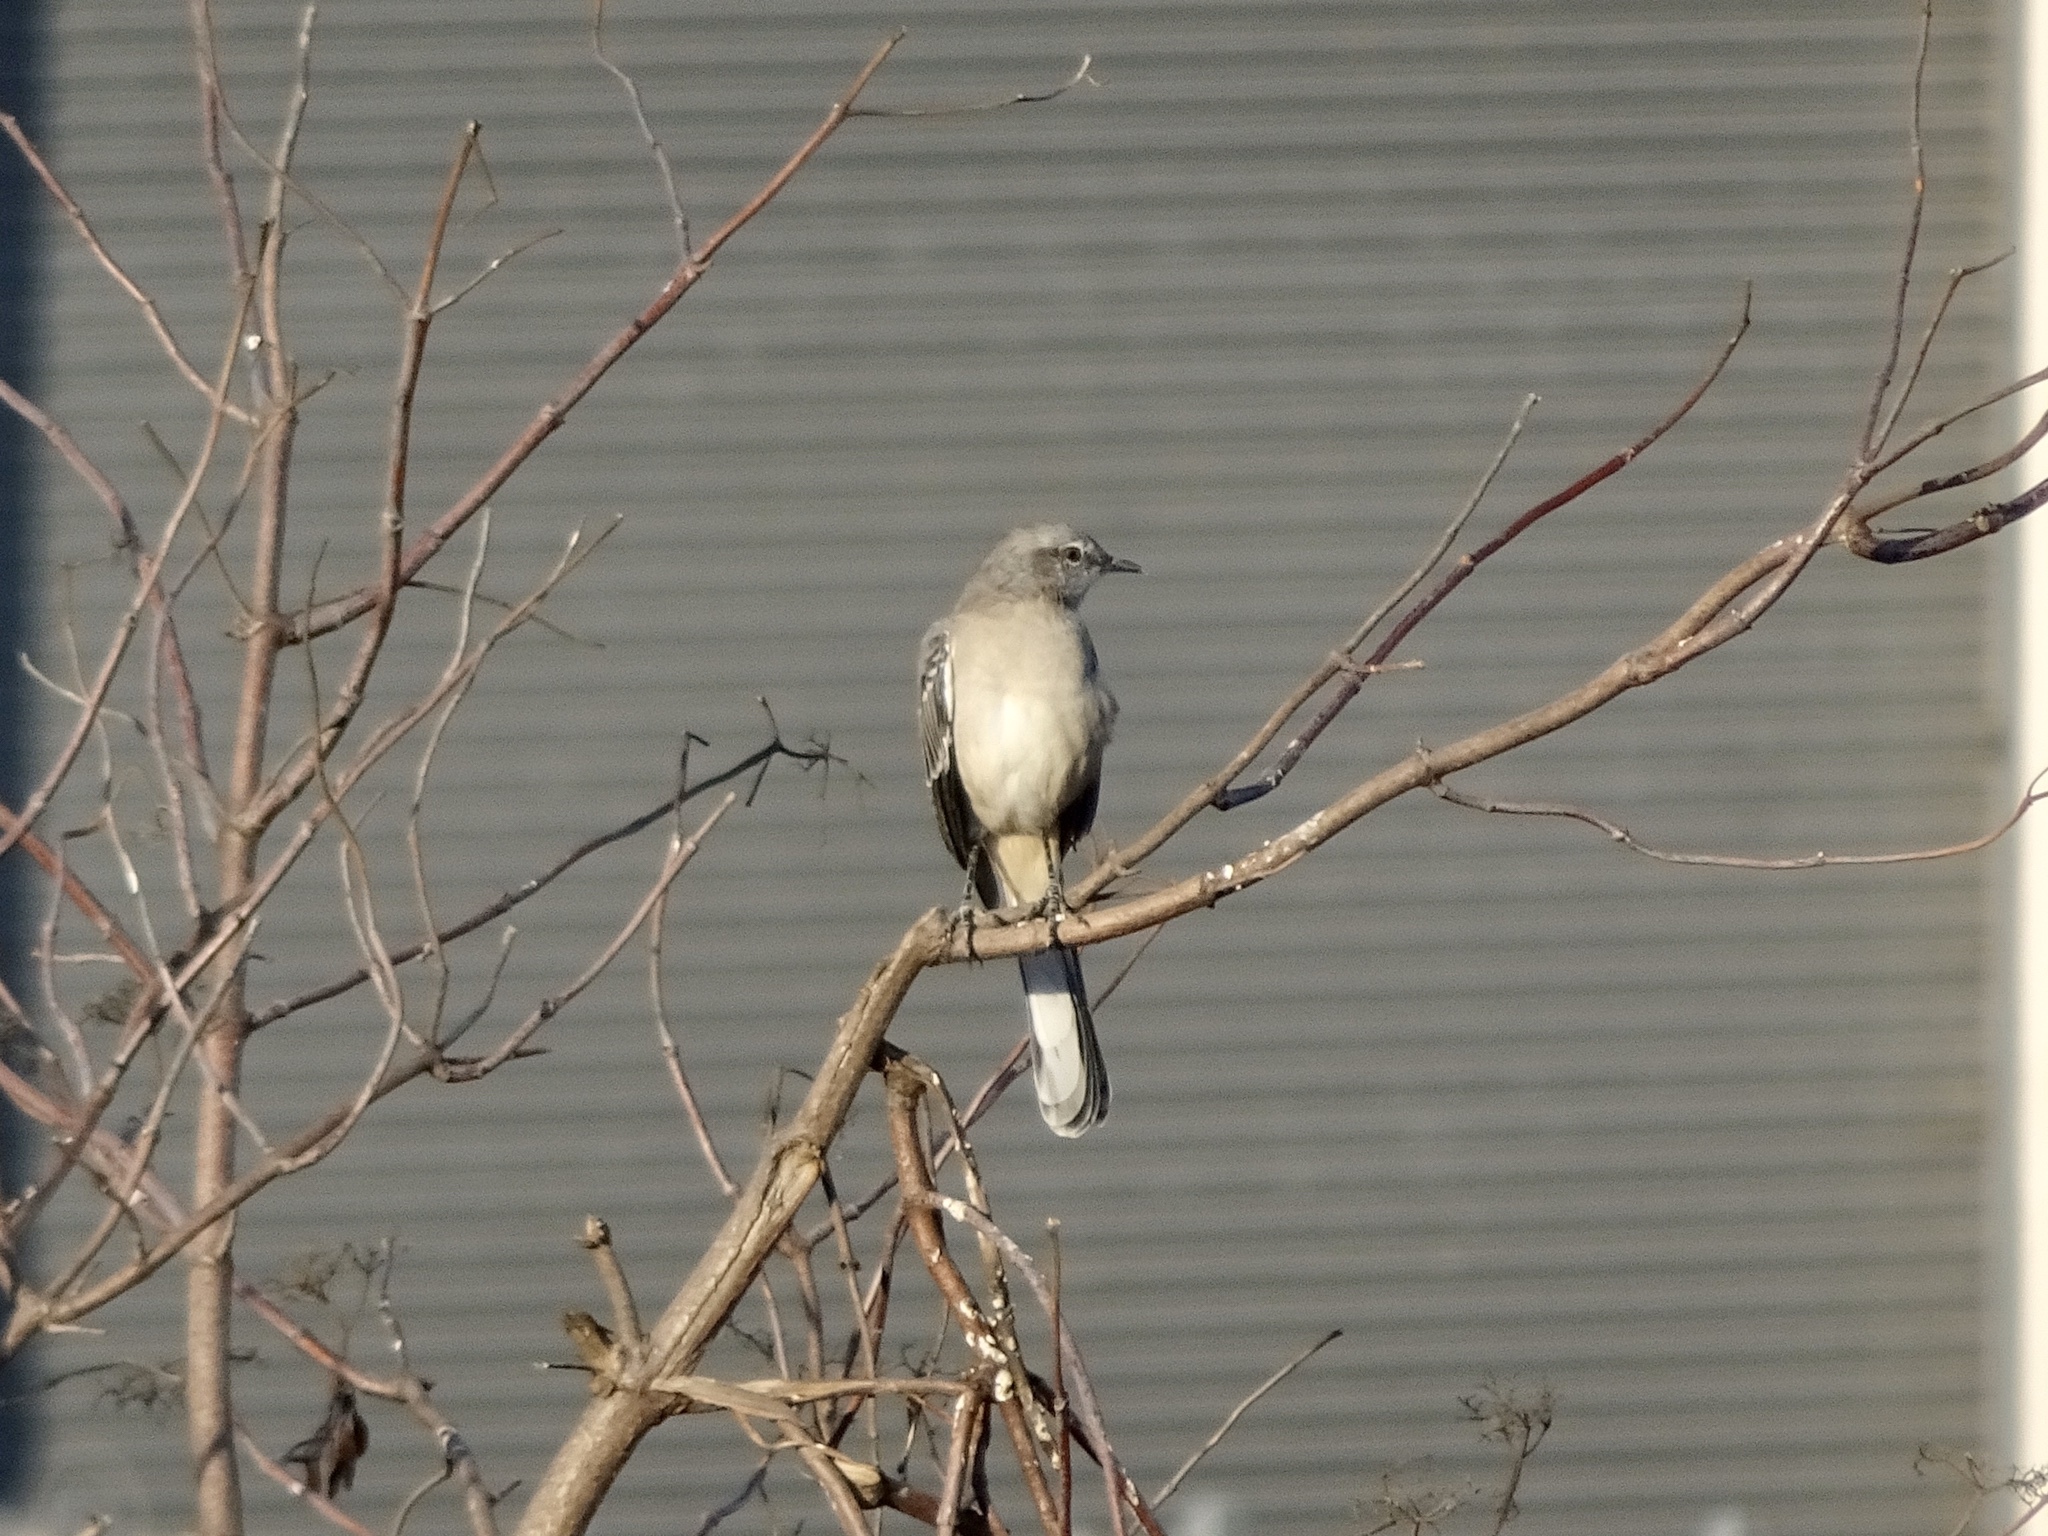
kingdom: Animalia
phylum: Chordata
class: Aves
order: Passeriformes
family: Mimidae
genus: Mimus
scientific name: Mimus polyglottos
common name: Northern mockingbird
